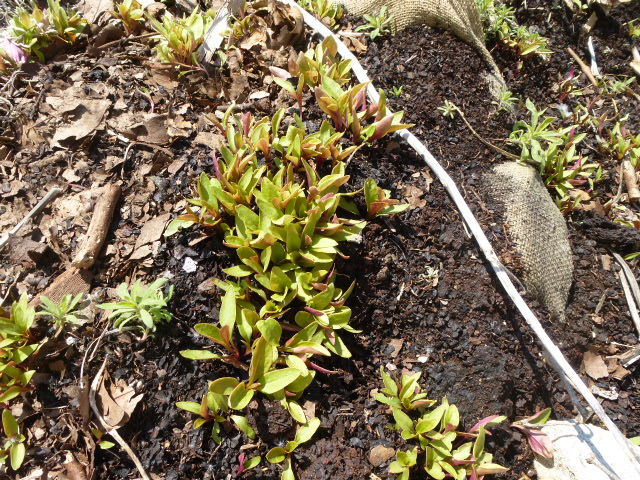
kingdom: Plantae
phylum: Tracheophyta
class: Magnoliopsida
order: Caryophyllales
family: Phytolaccaceae
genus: Phytolacca
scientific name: Phytolacca americana
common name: American pokeweed
